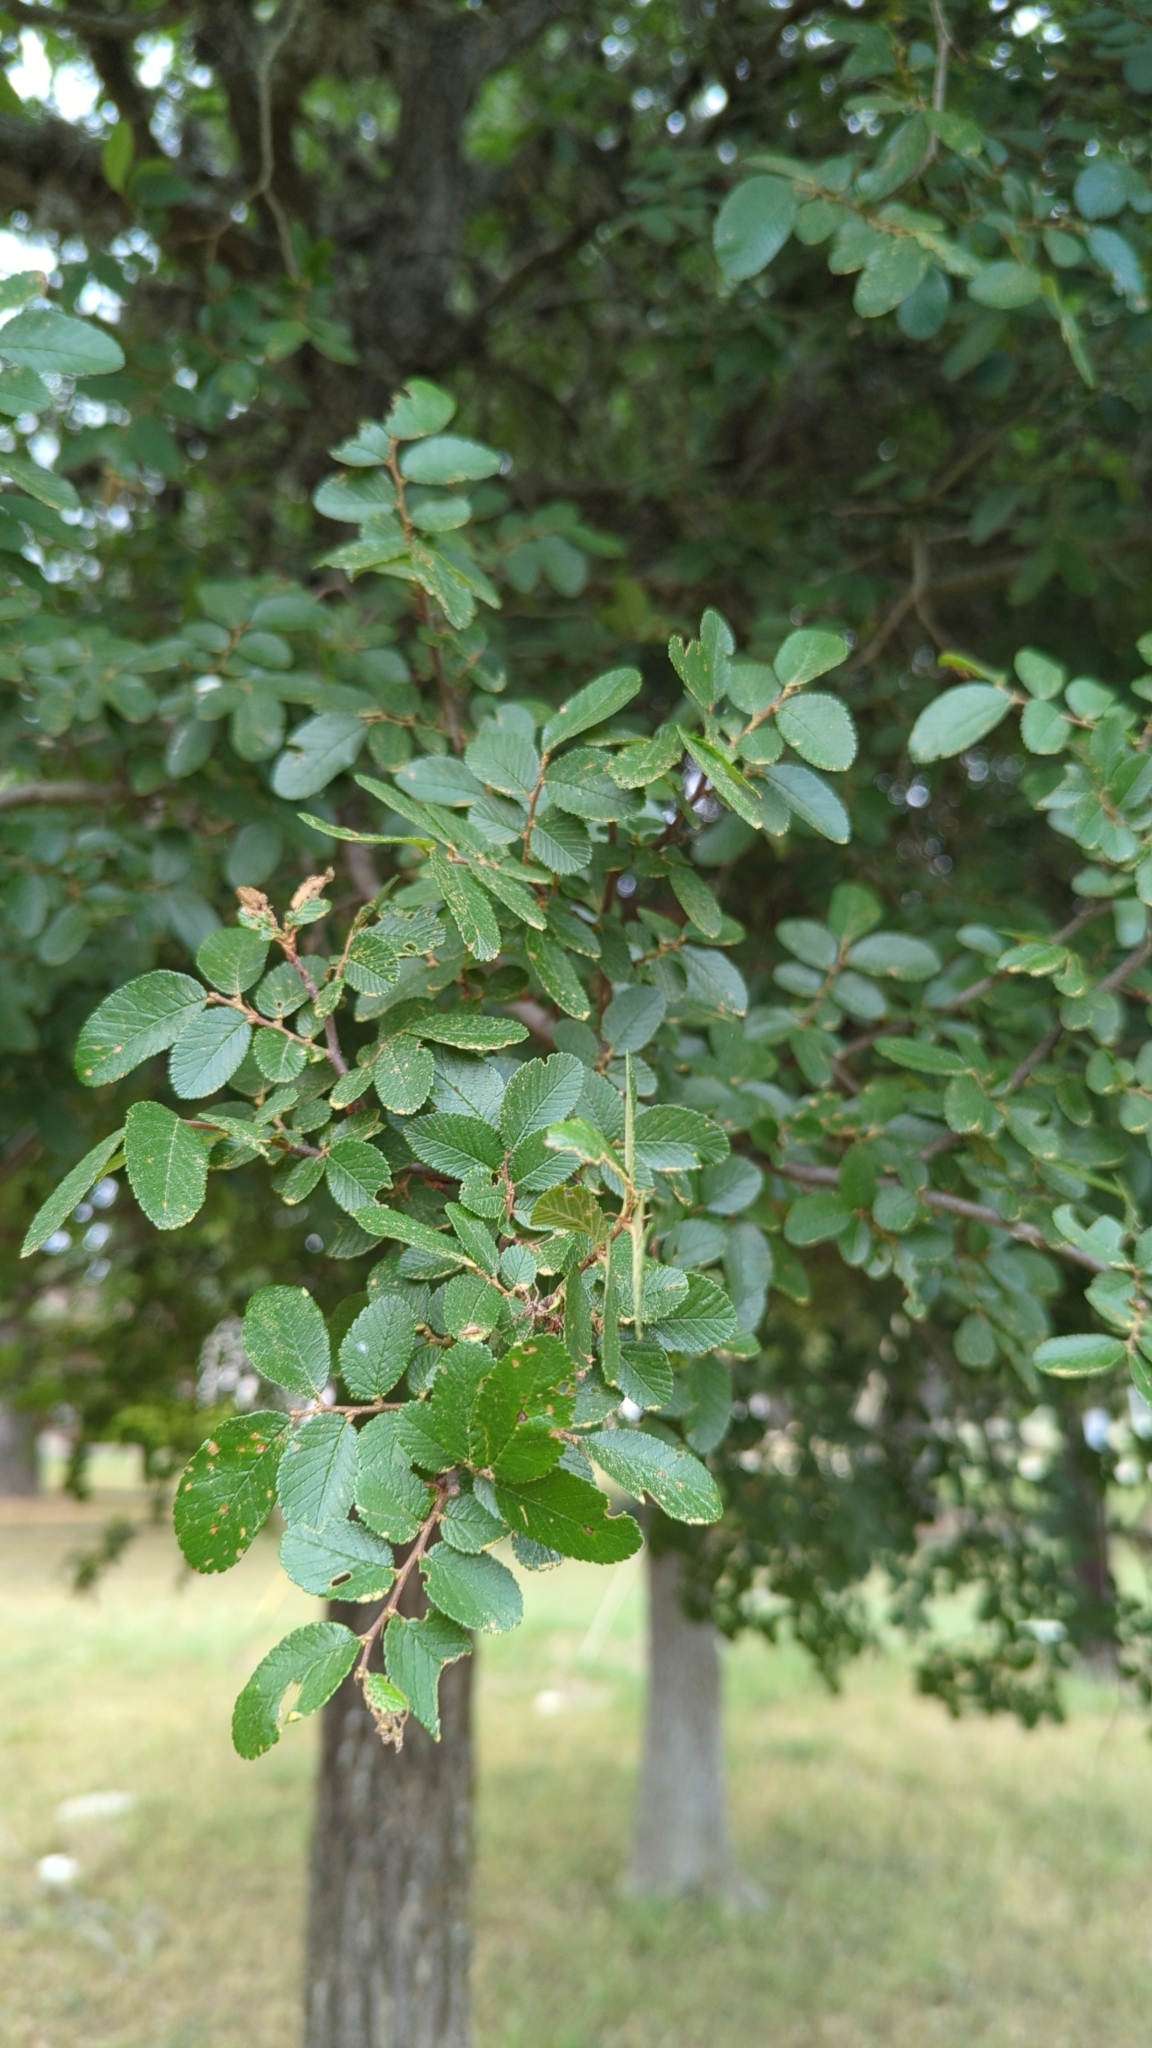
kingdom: Plantae
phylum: Tracheophyta
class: Magnoliopsida
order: Rosales
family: Ulmaceae
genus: Ulmus
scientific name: Ulmus crassifolia
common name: Basket elm
